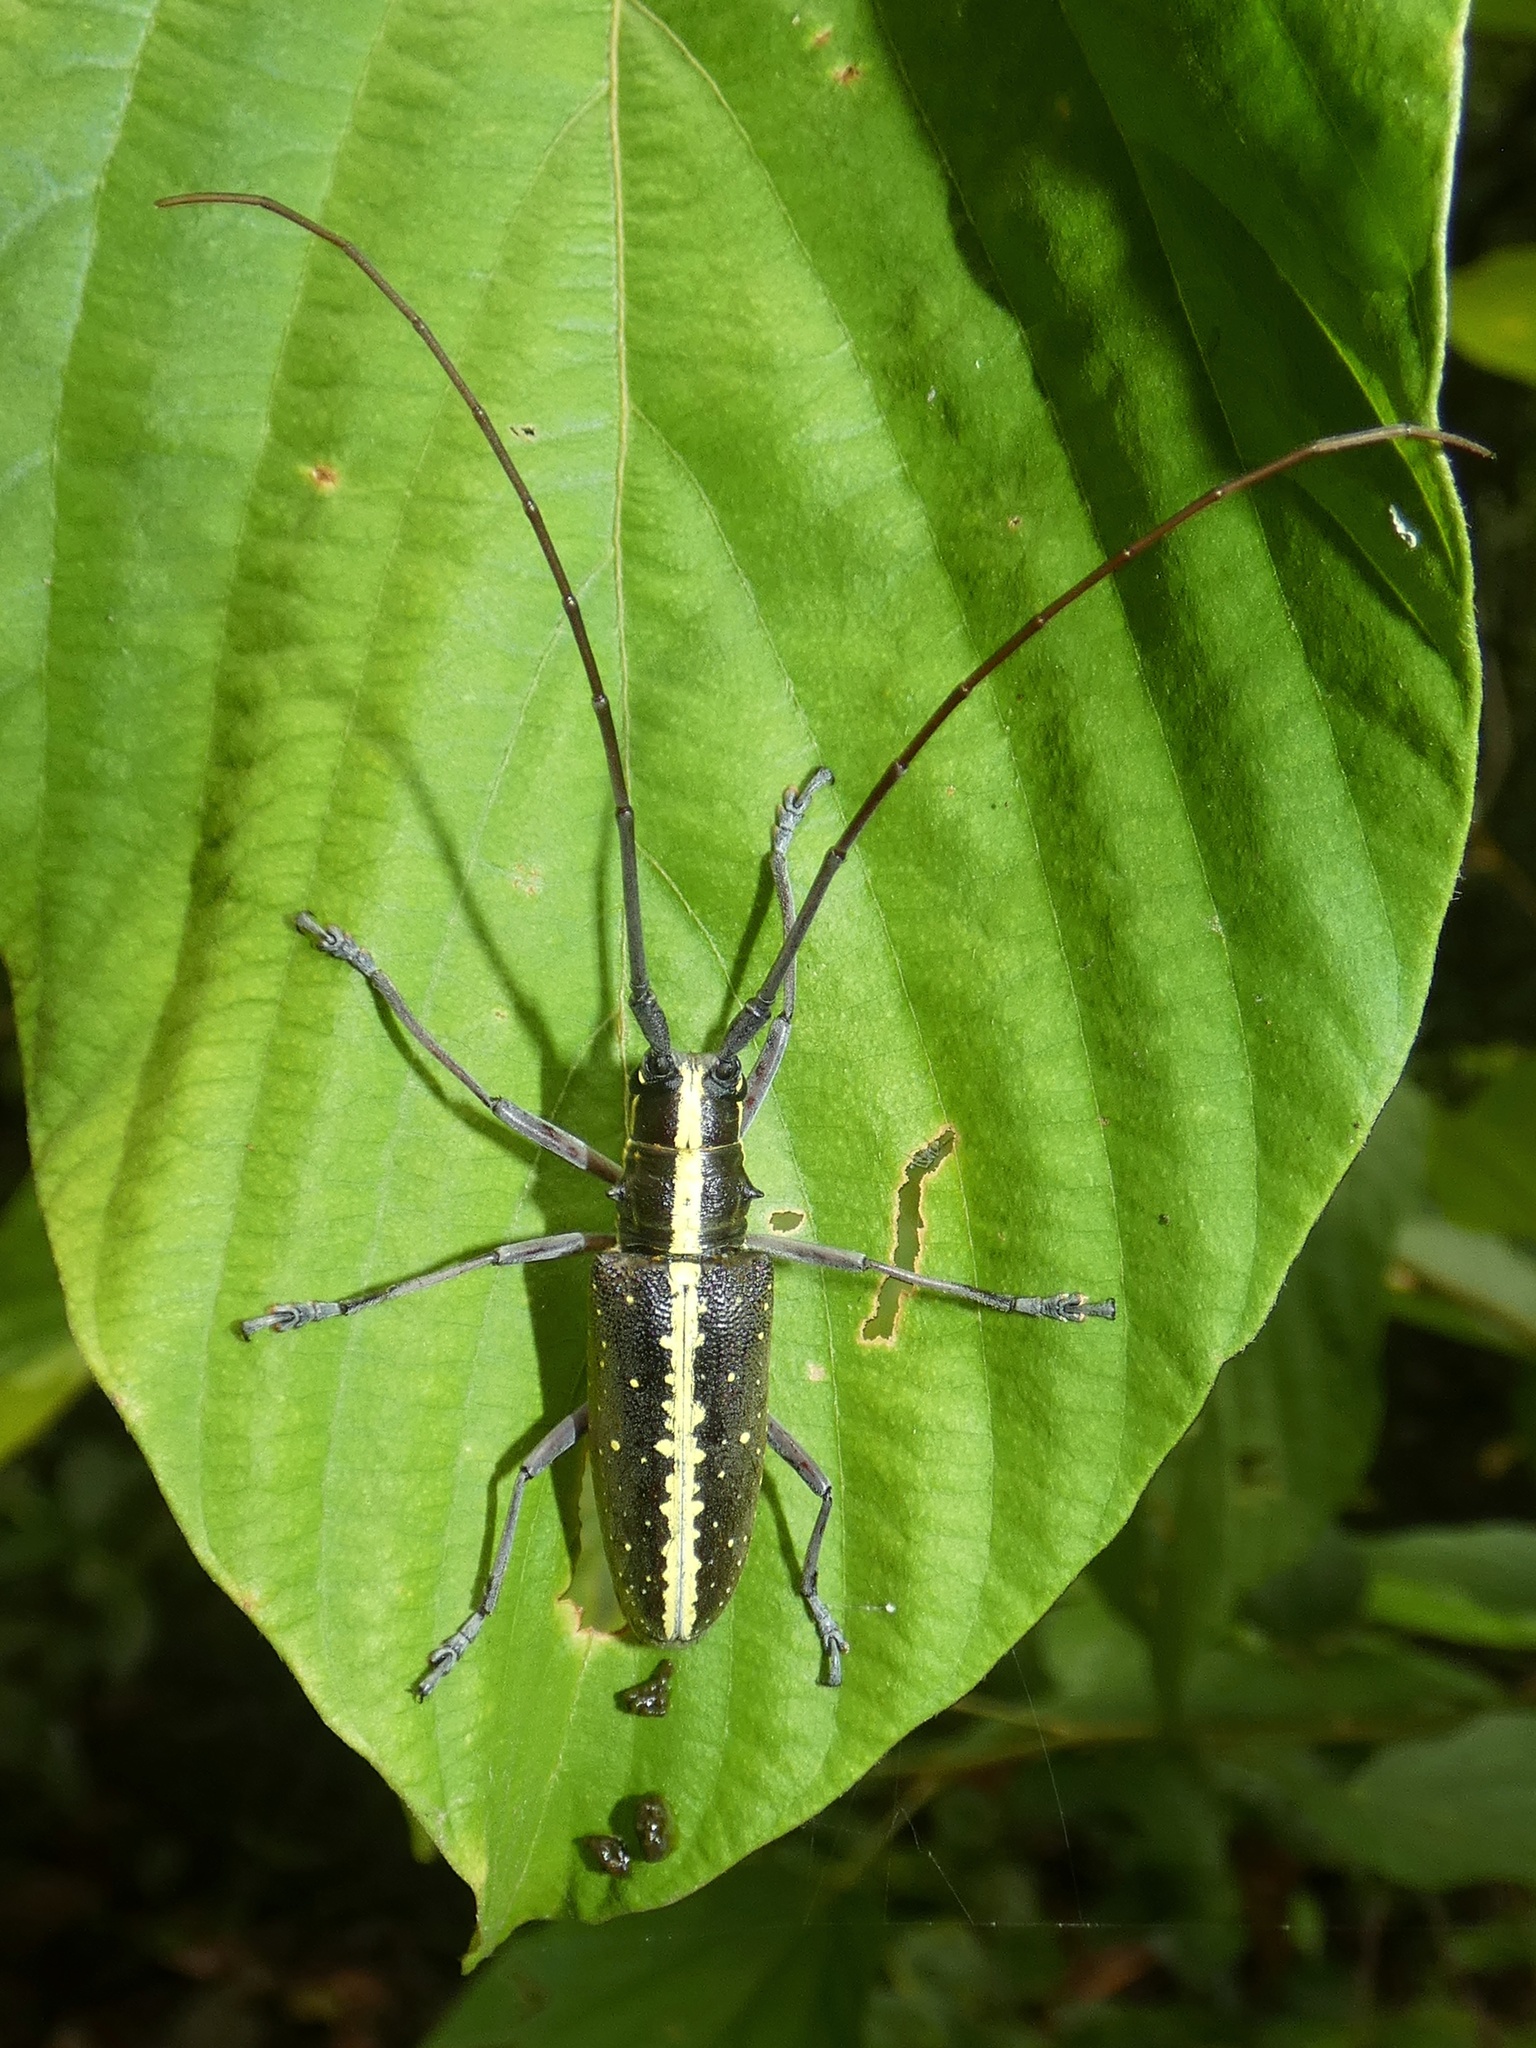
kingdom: Animalia
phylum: Arthropoda
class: Insecta
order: Coleoptera
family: Cerambycidae
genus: Taeniotes
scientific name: Taeniotes scalatus
